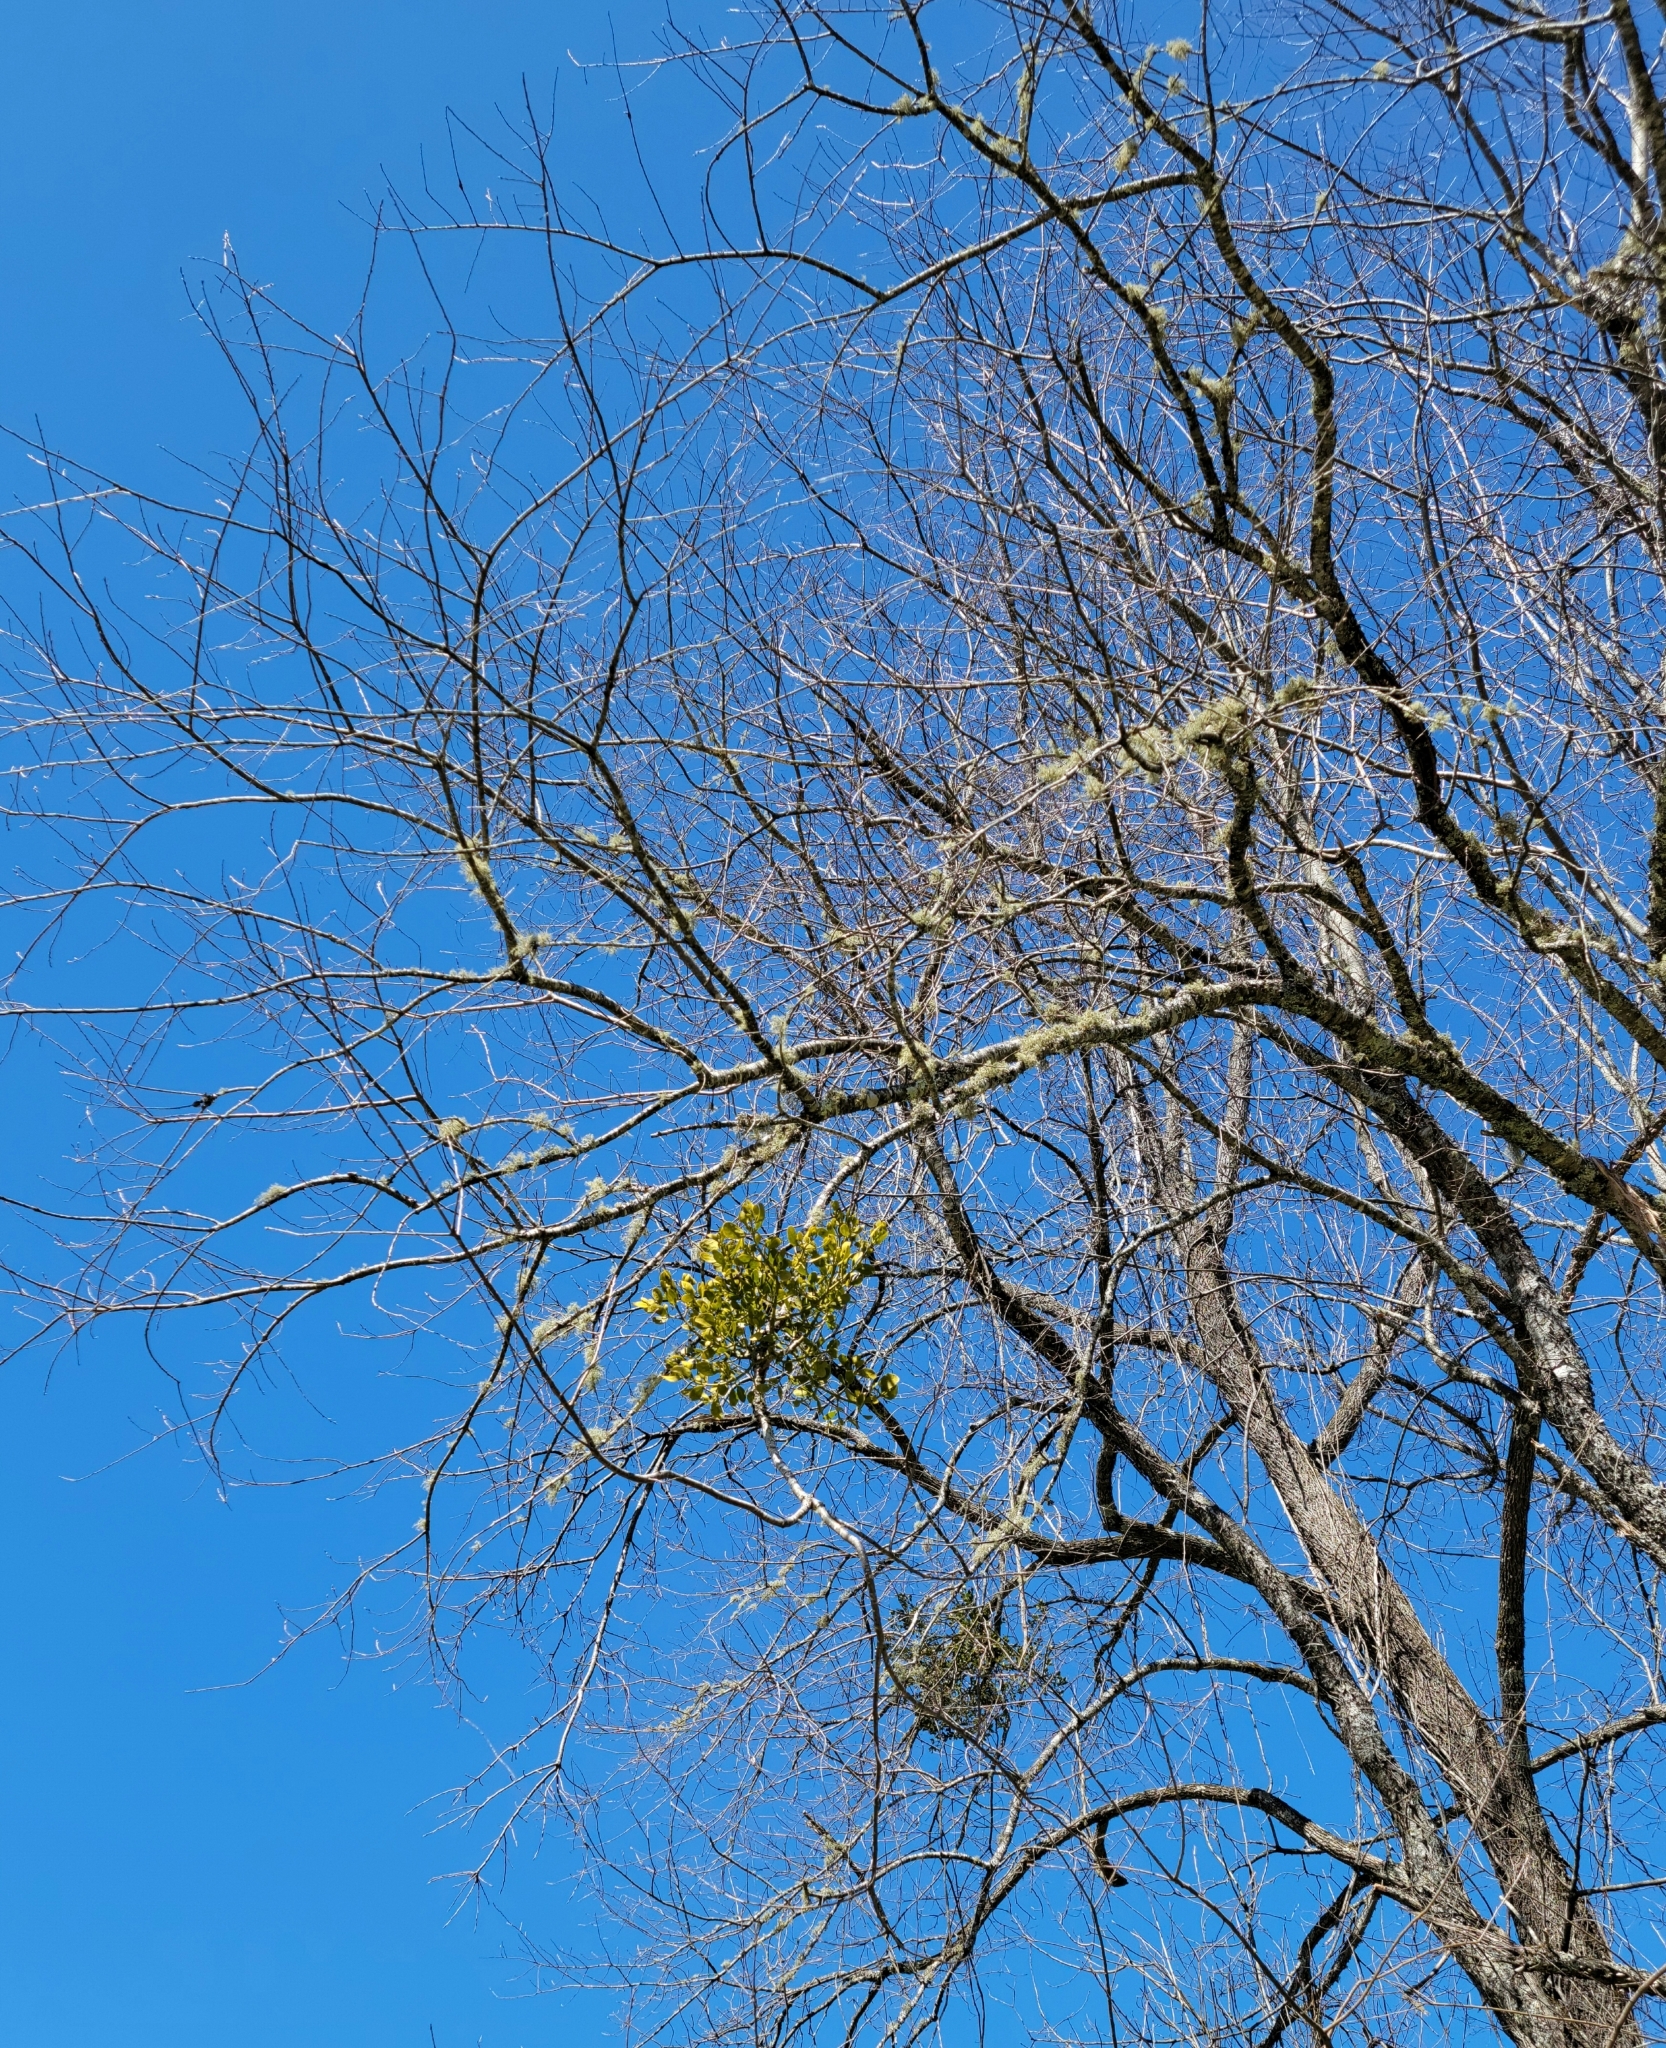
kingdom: Plantae
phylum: Tracheophyta
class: Magnoliopsida
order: Santalales
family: Viscaceae
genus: Phoradendron
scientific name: Phoradendron leucarpum
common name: Pacific mistletoe
